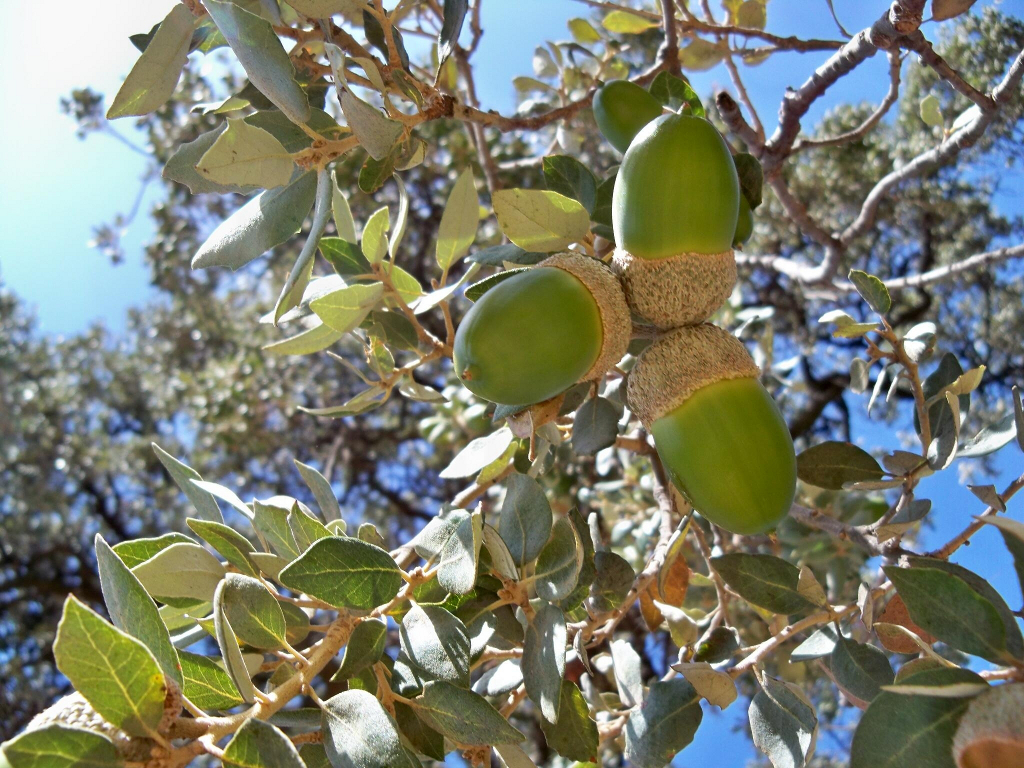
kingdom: Plantae
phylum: Tracheophyta
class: Magnoliopsida
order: Fagales
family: Fagaceae
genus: Quercus
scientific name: Quercus rotundifolia
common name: Holm oak
